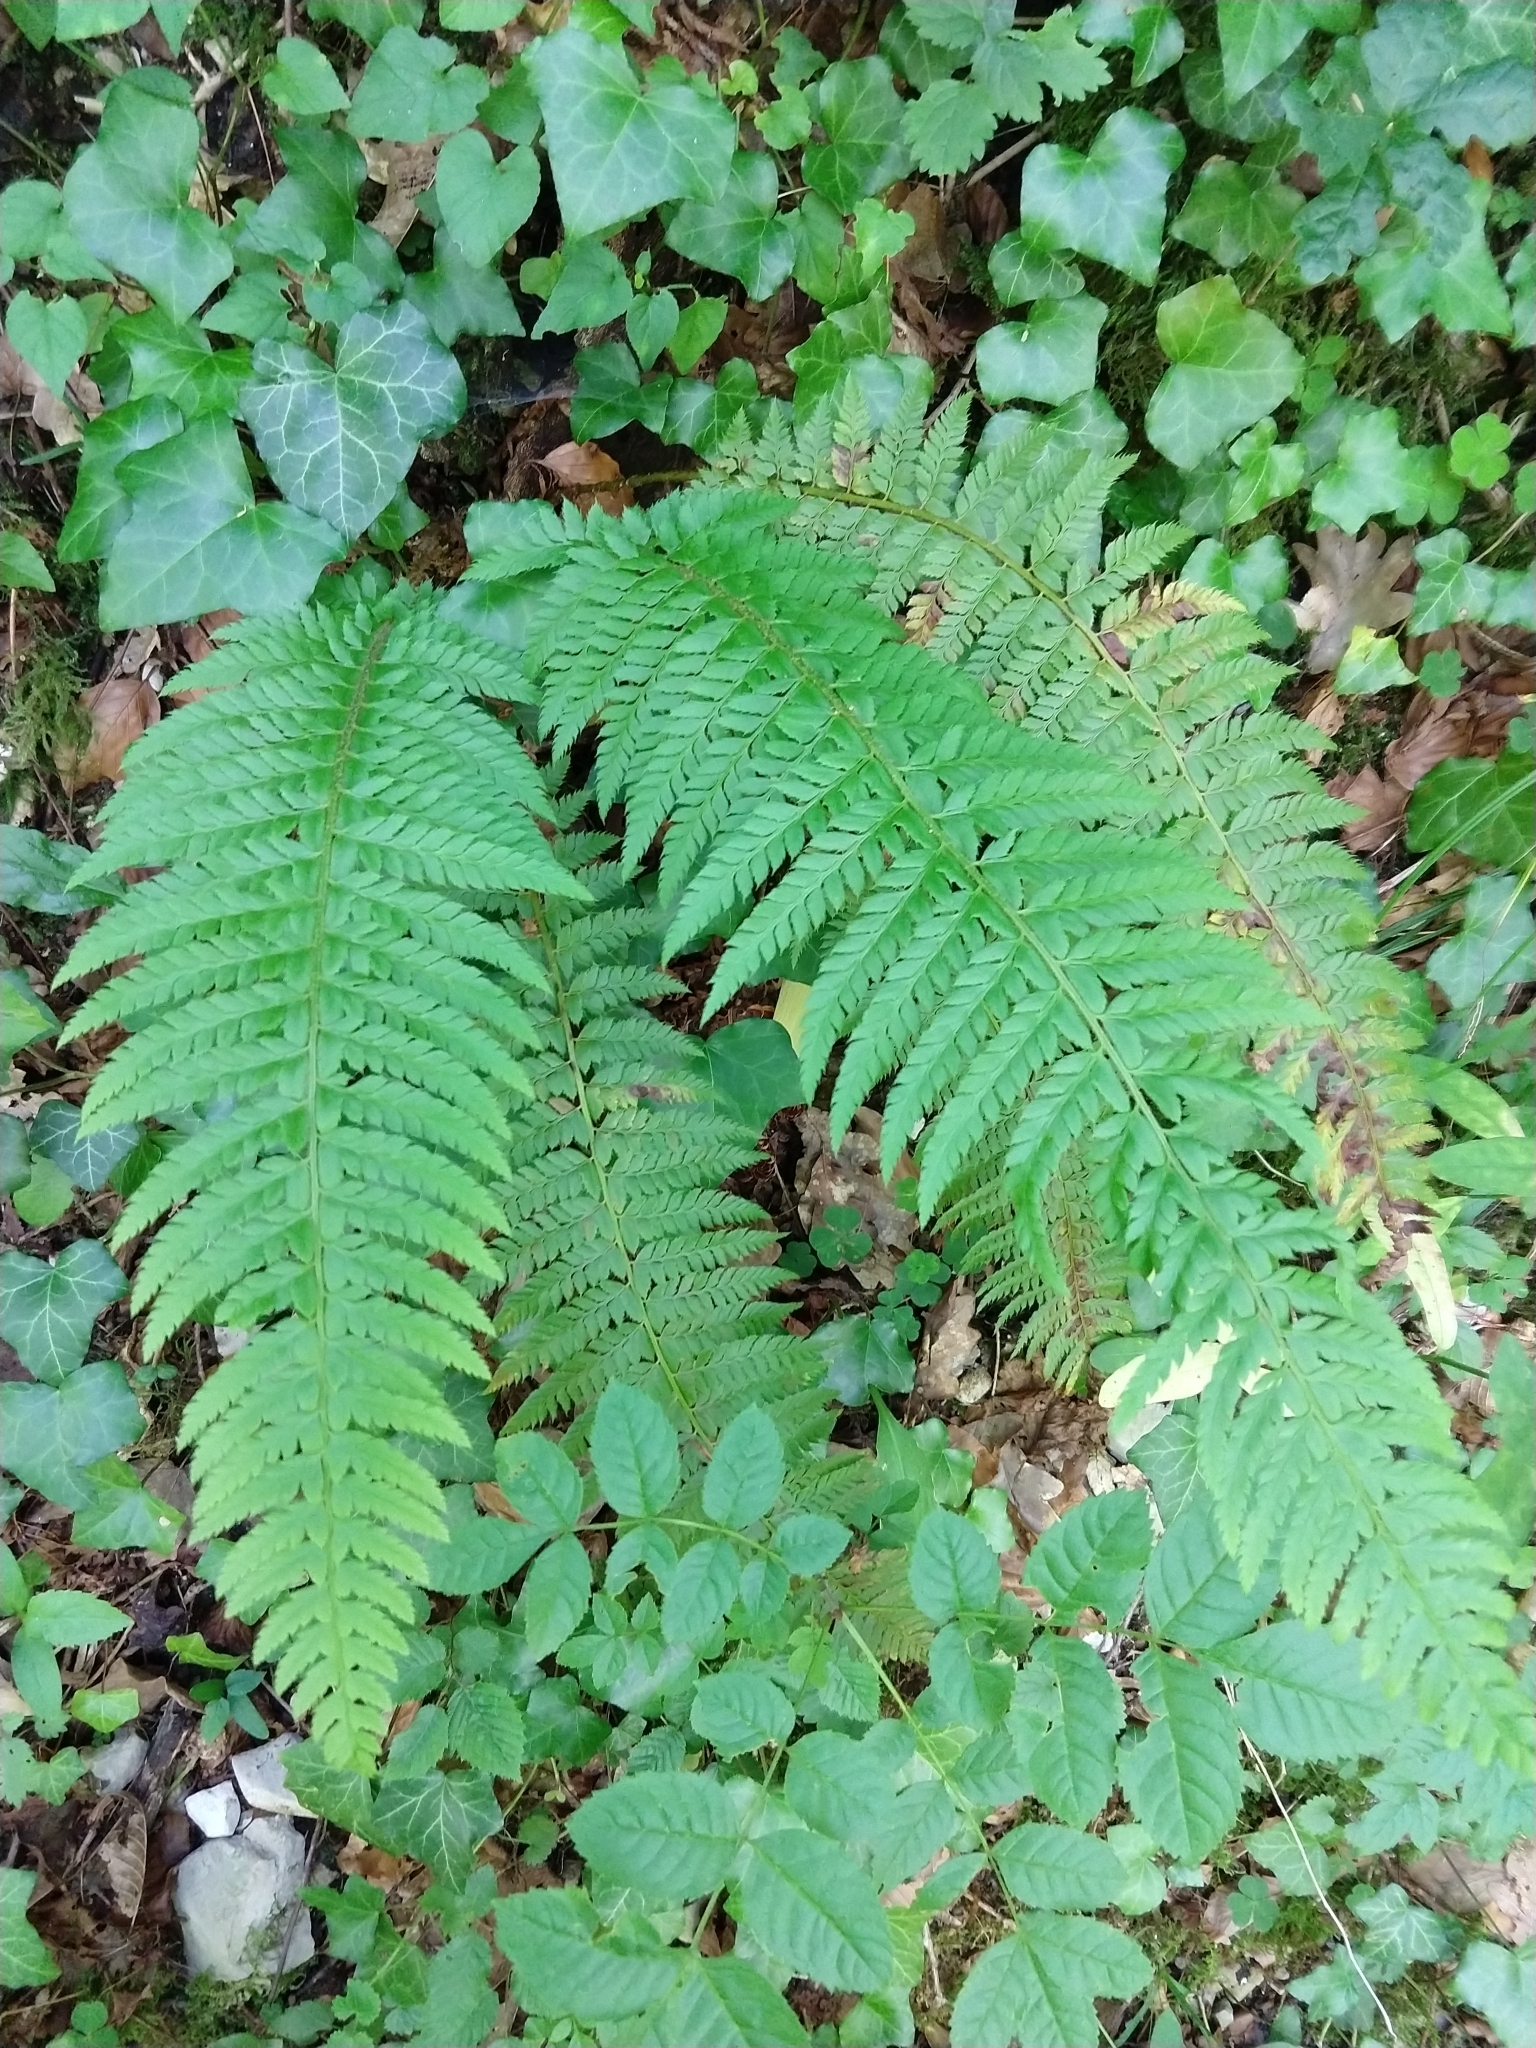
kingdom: Plantae
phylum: Tracheophyta
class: Polypodiopsida
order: Polypodiales
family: Dryopteridaceae
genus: Polystichum
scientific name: Polystichum aculeatum
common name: Hard shield-fern
